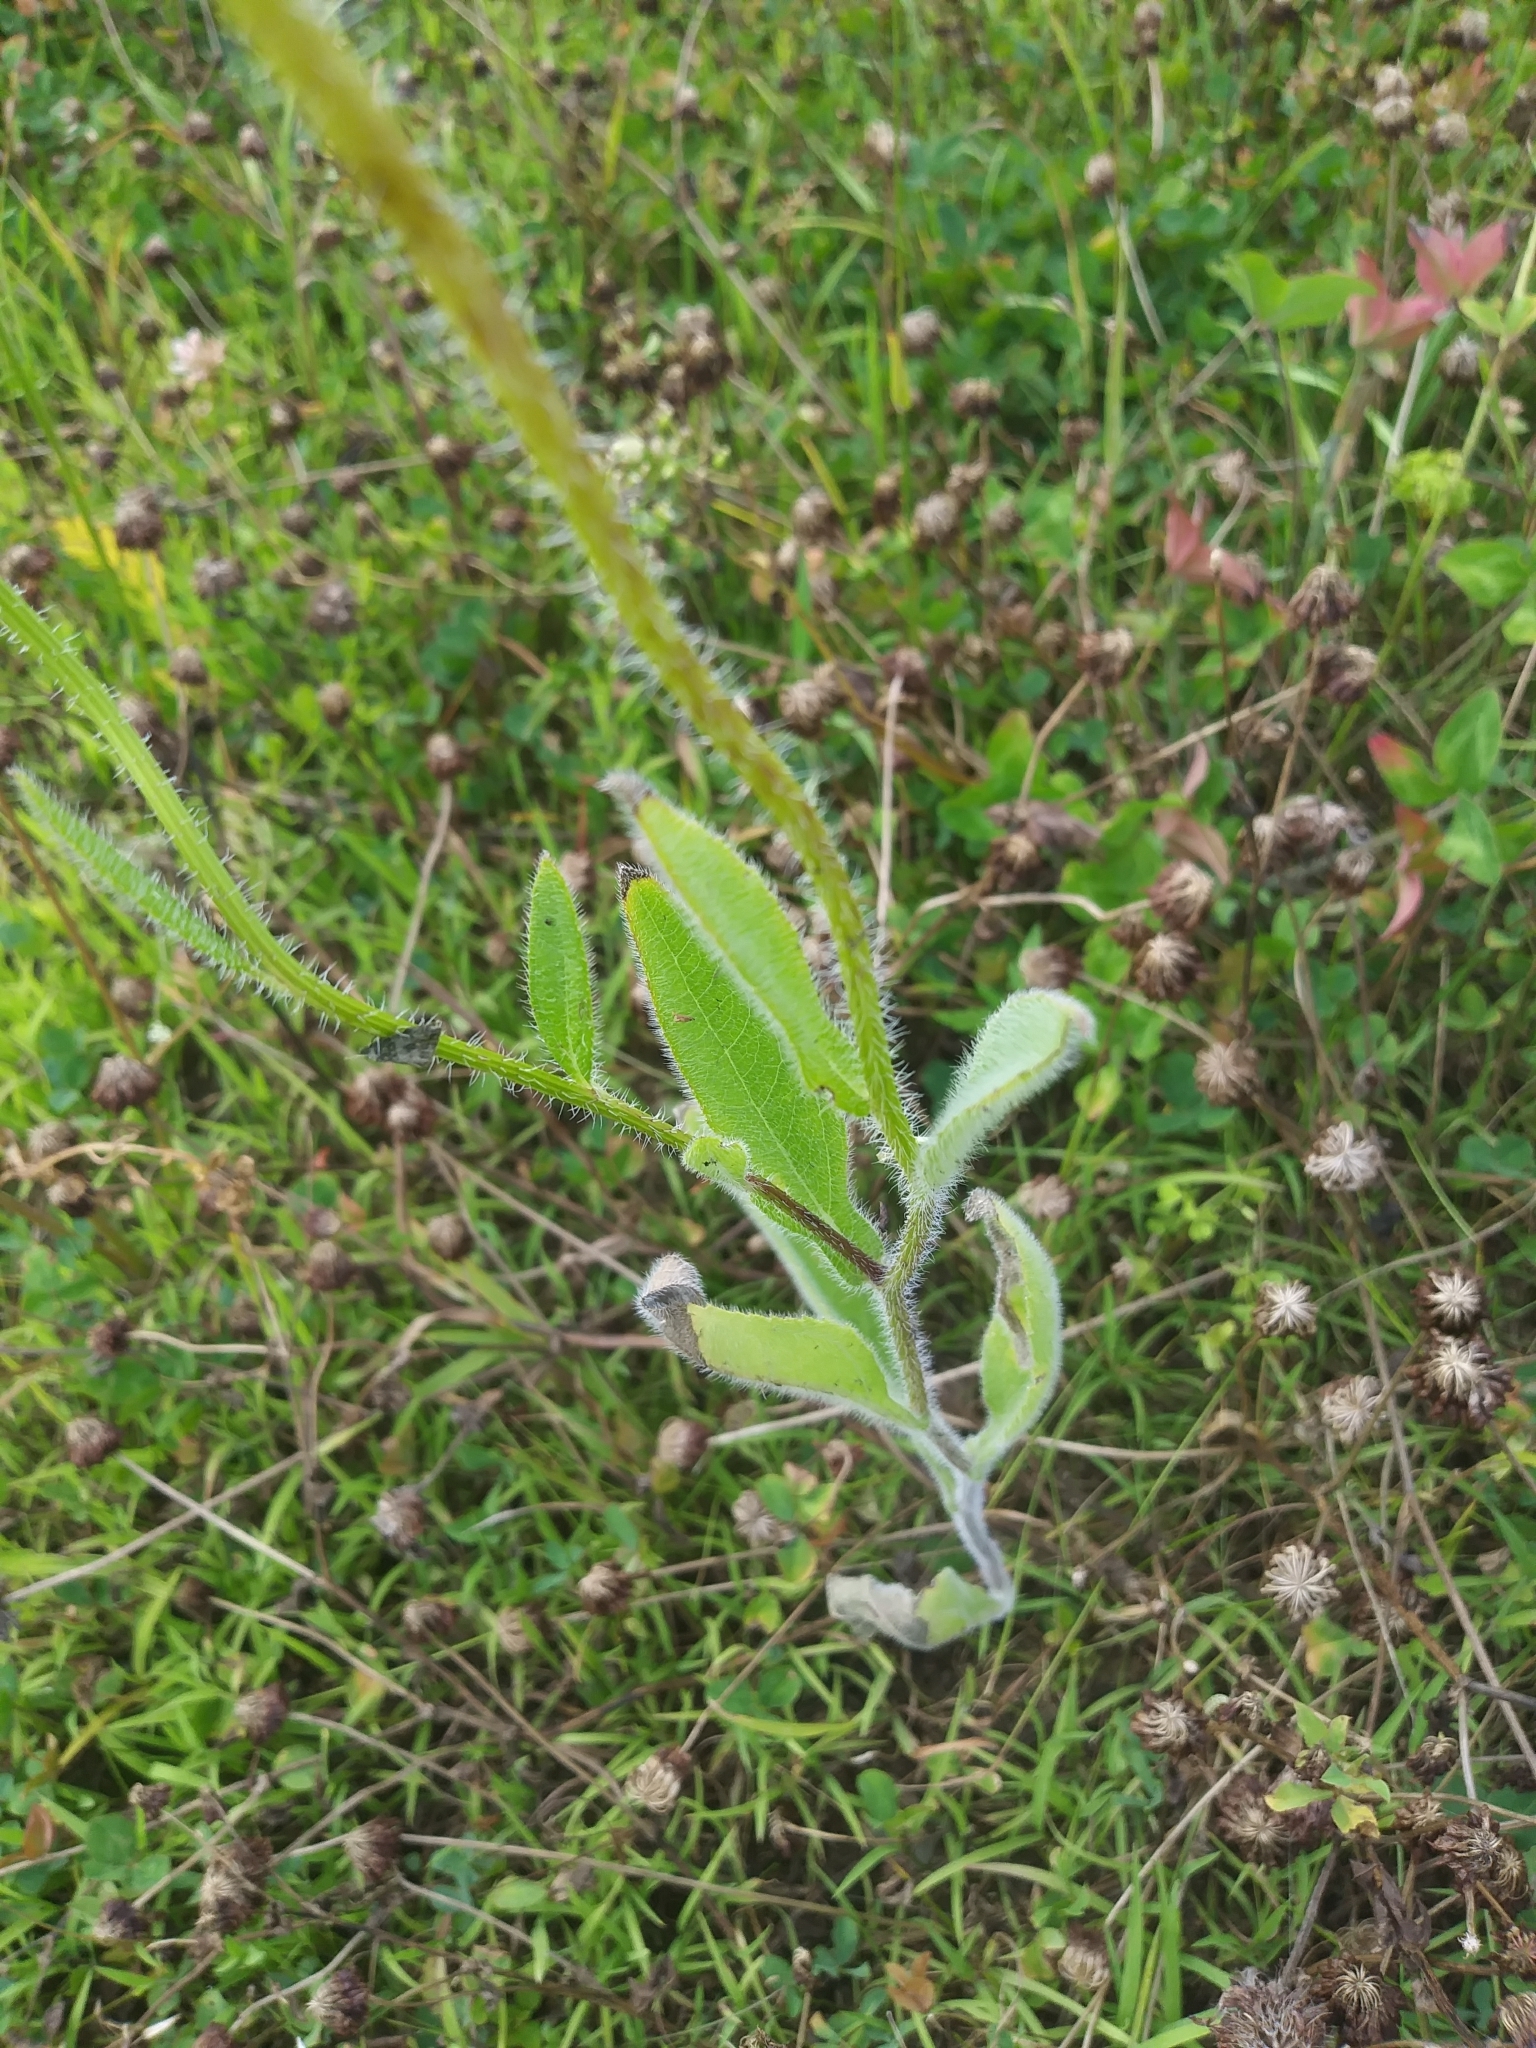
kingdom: Plantae
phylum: Tracheophyta
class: Magnoliopsida
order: Asterales
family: Asteraceae
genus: Rudbeckia
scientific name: Rudbeckia hirta
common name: Black-eyed-susan
